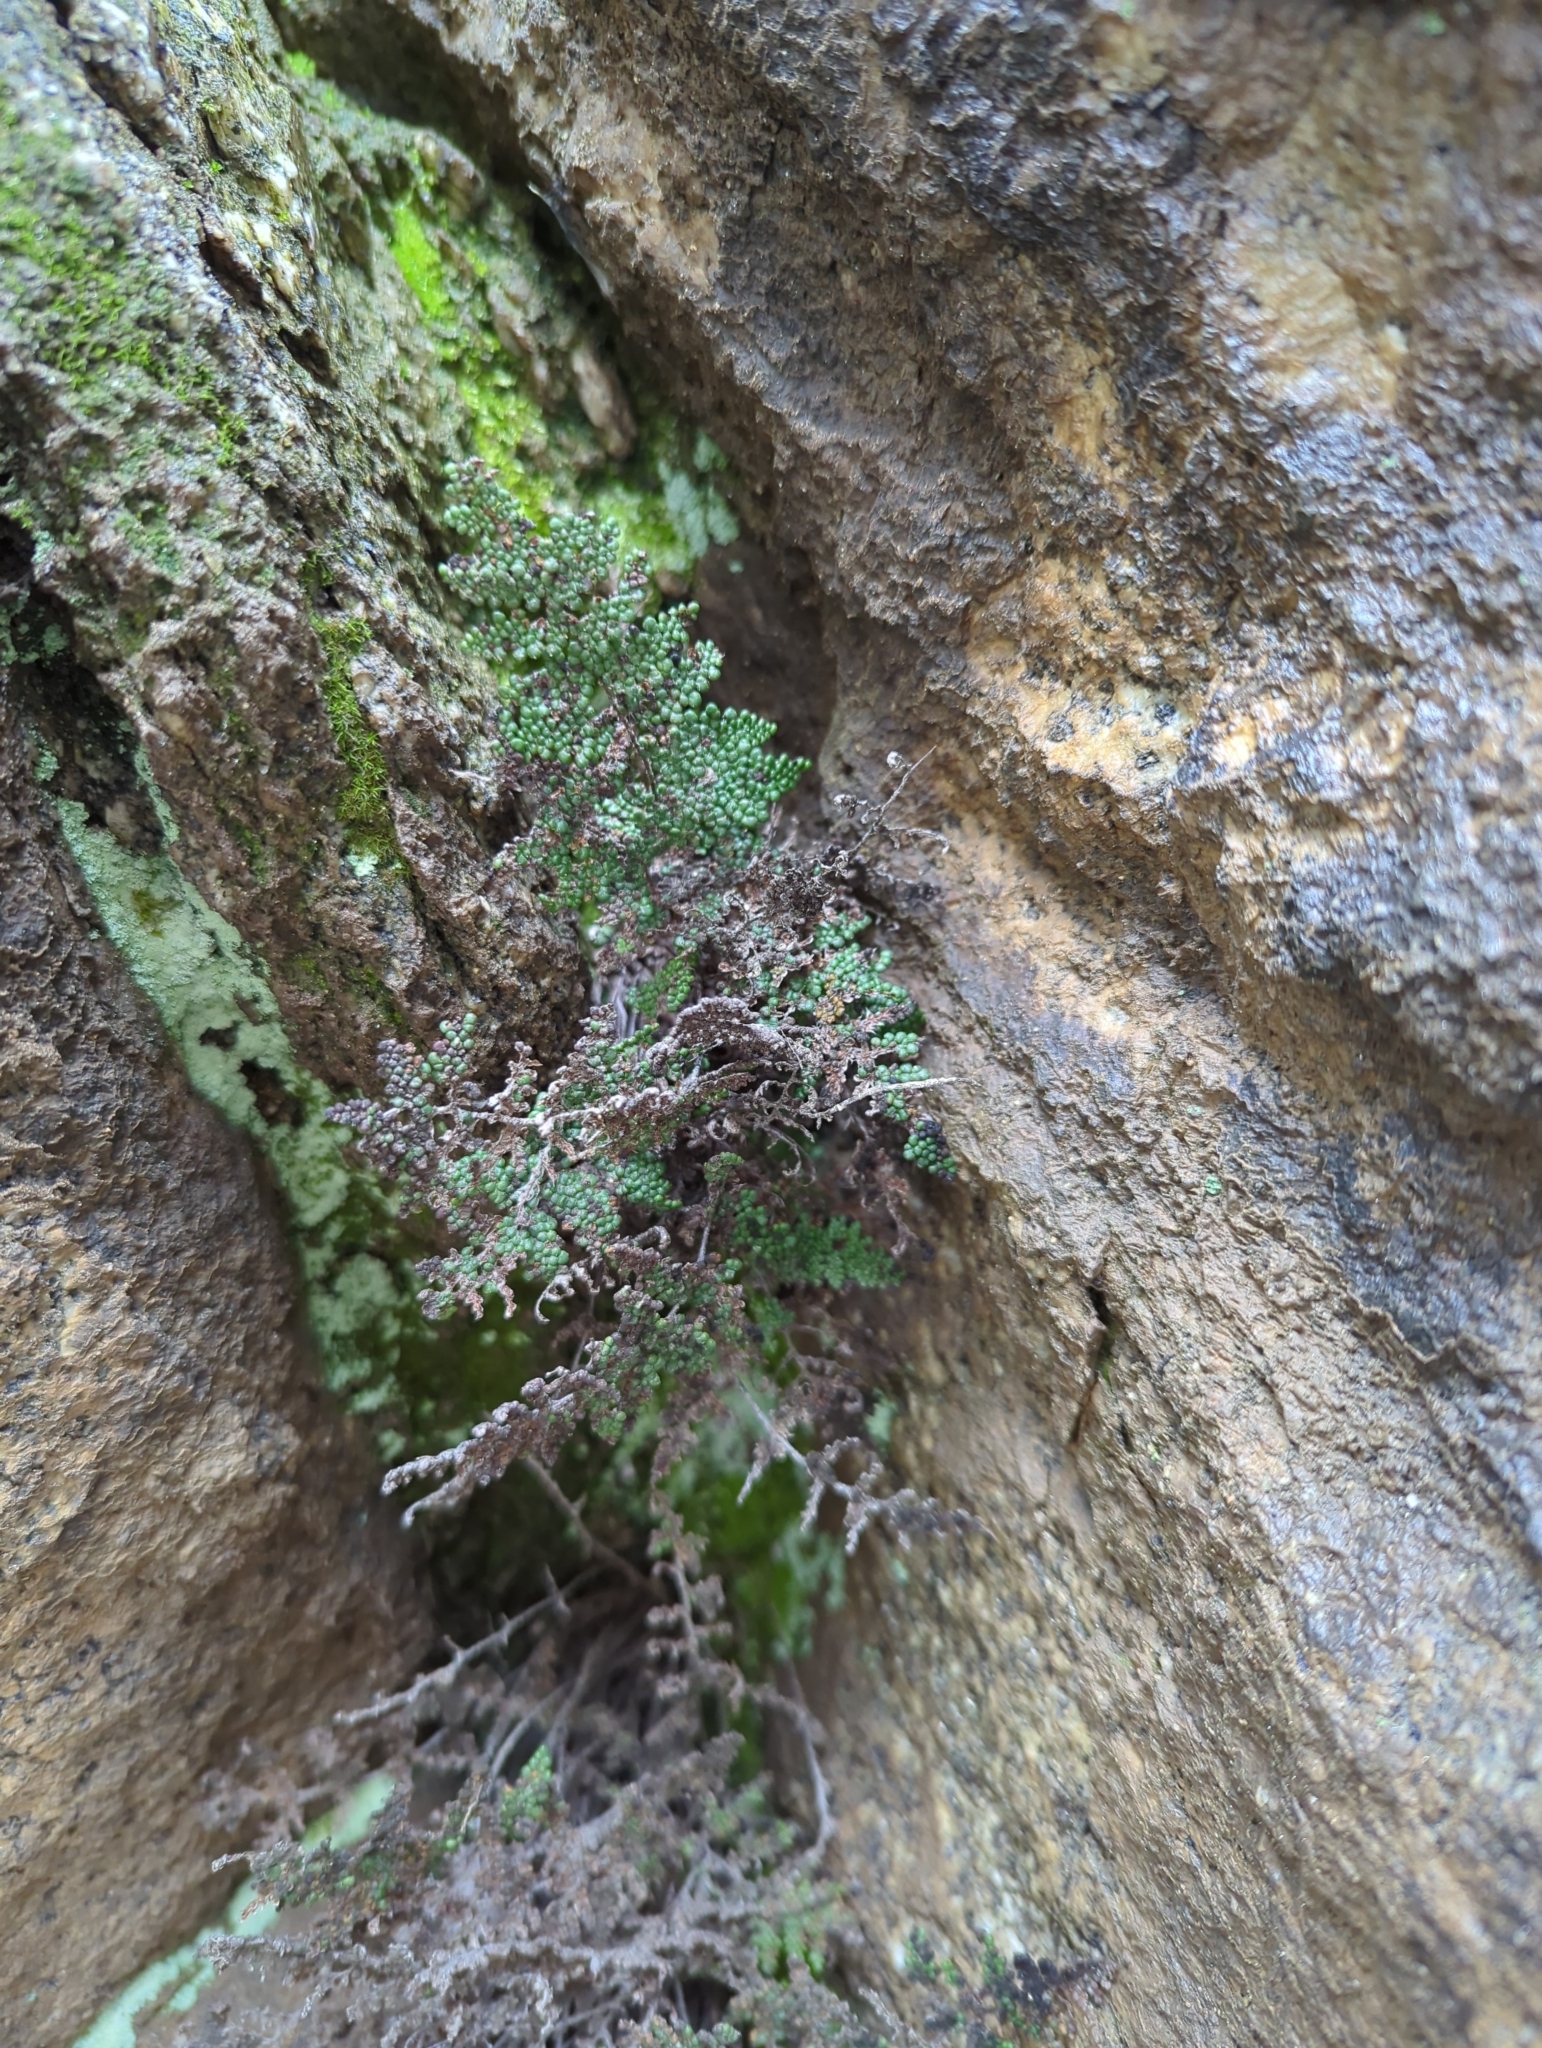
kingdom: Plantae
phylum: Tracheophyta
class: Polypodiopsida
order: Polypodiales
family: Pteridaceae
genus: Myriopteris
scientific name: Myriopteris covillei
